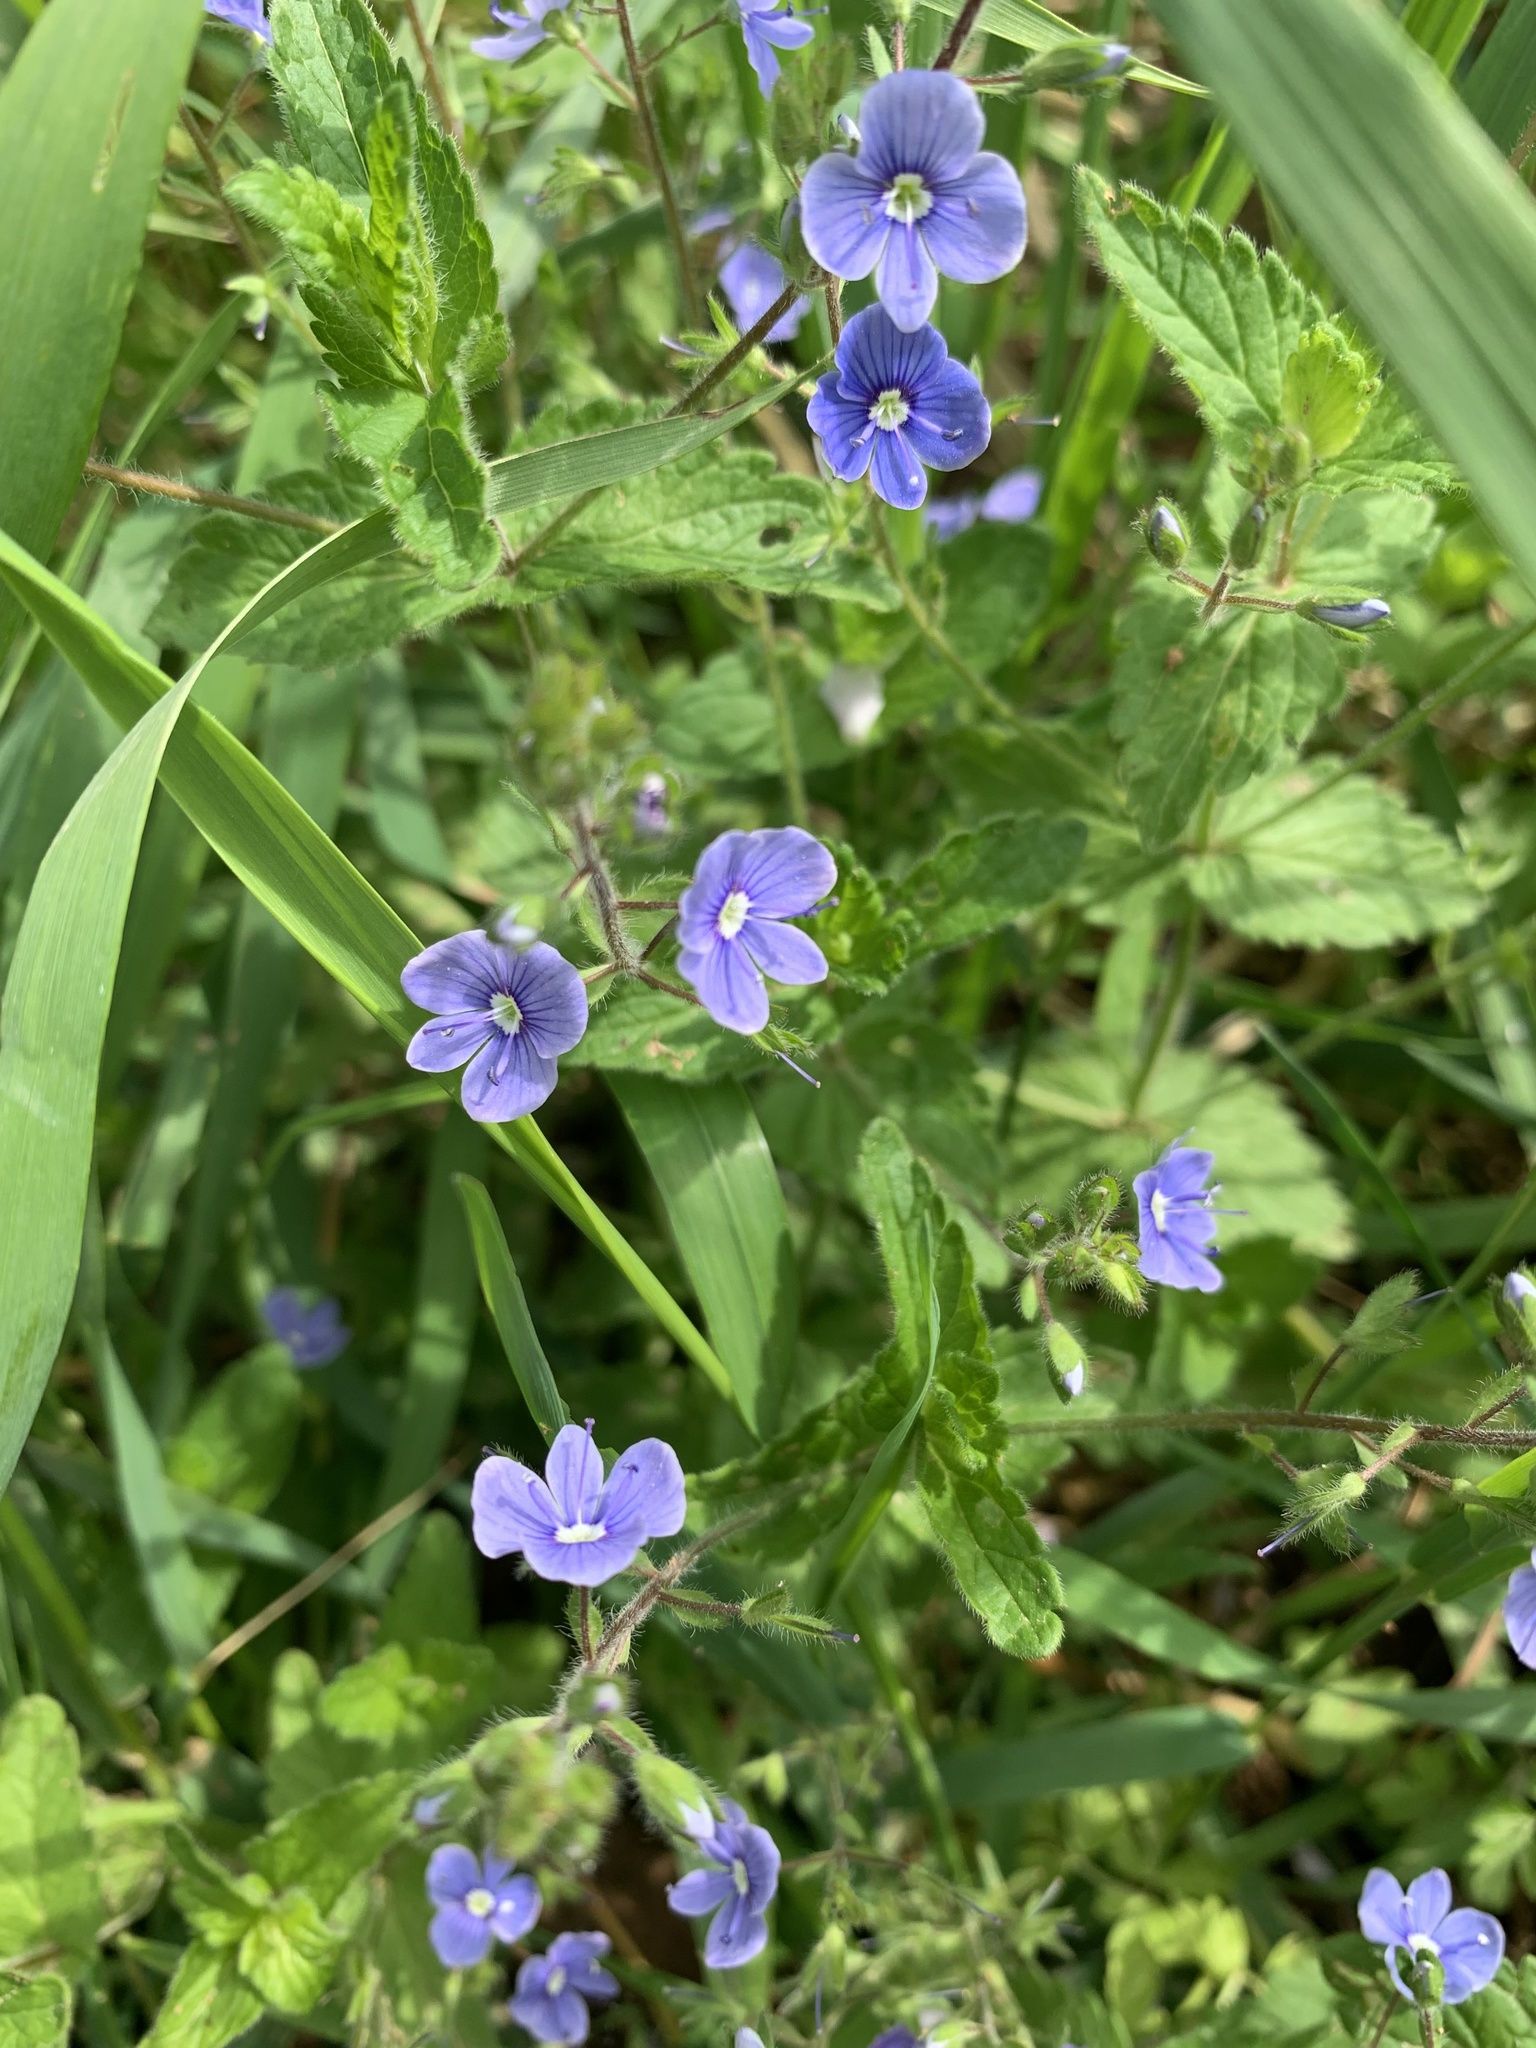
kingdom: Plantae
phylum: Tracheophyta
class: Magnoliopsida
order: Lamiales
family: Plantaginaceae
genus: Veronica
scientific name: Veronica chamaedrys
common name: Germander speedwell
